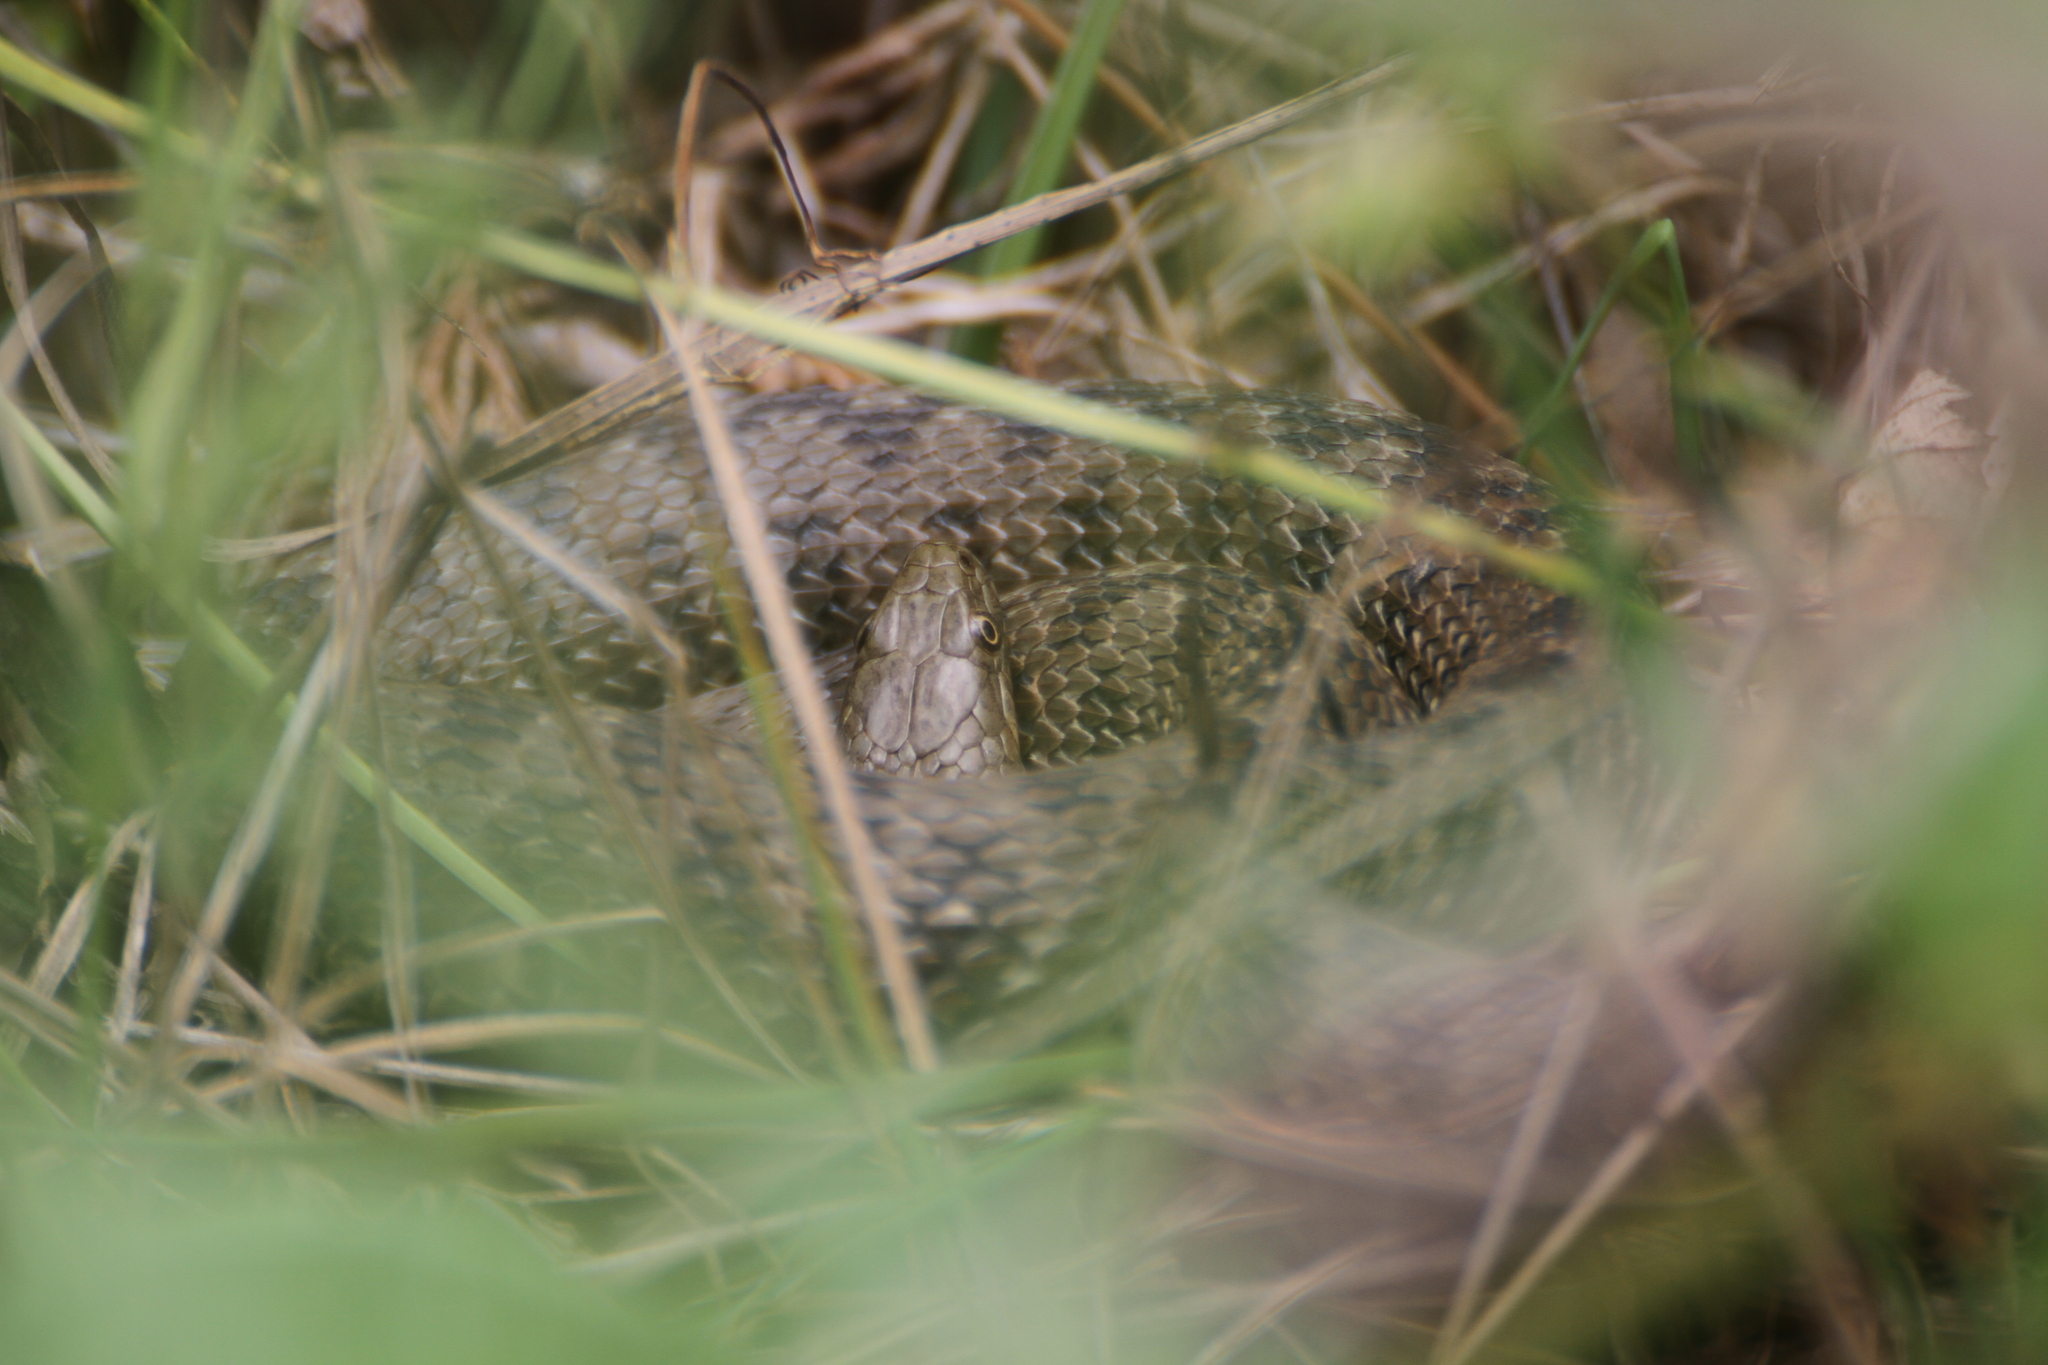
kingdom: Animalia
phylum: Chordata
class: Squamata
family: Colubridae
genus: Natrix
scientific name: Natrix maura
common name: Viperine water snake
